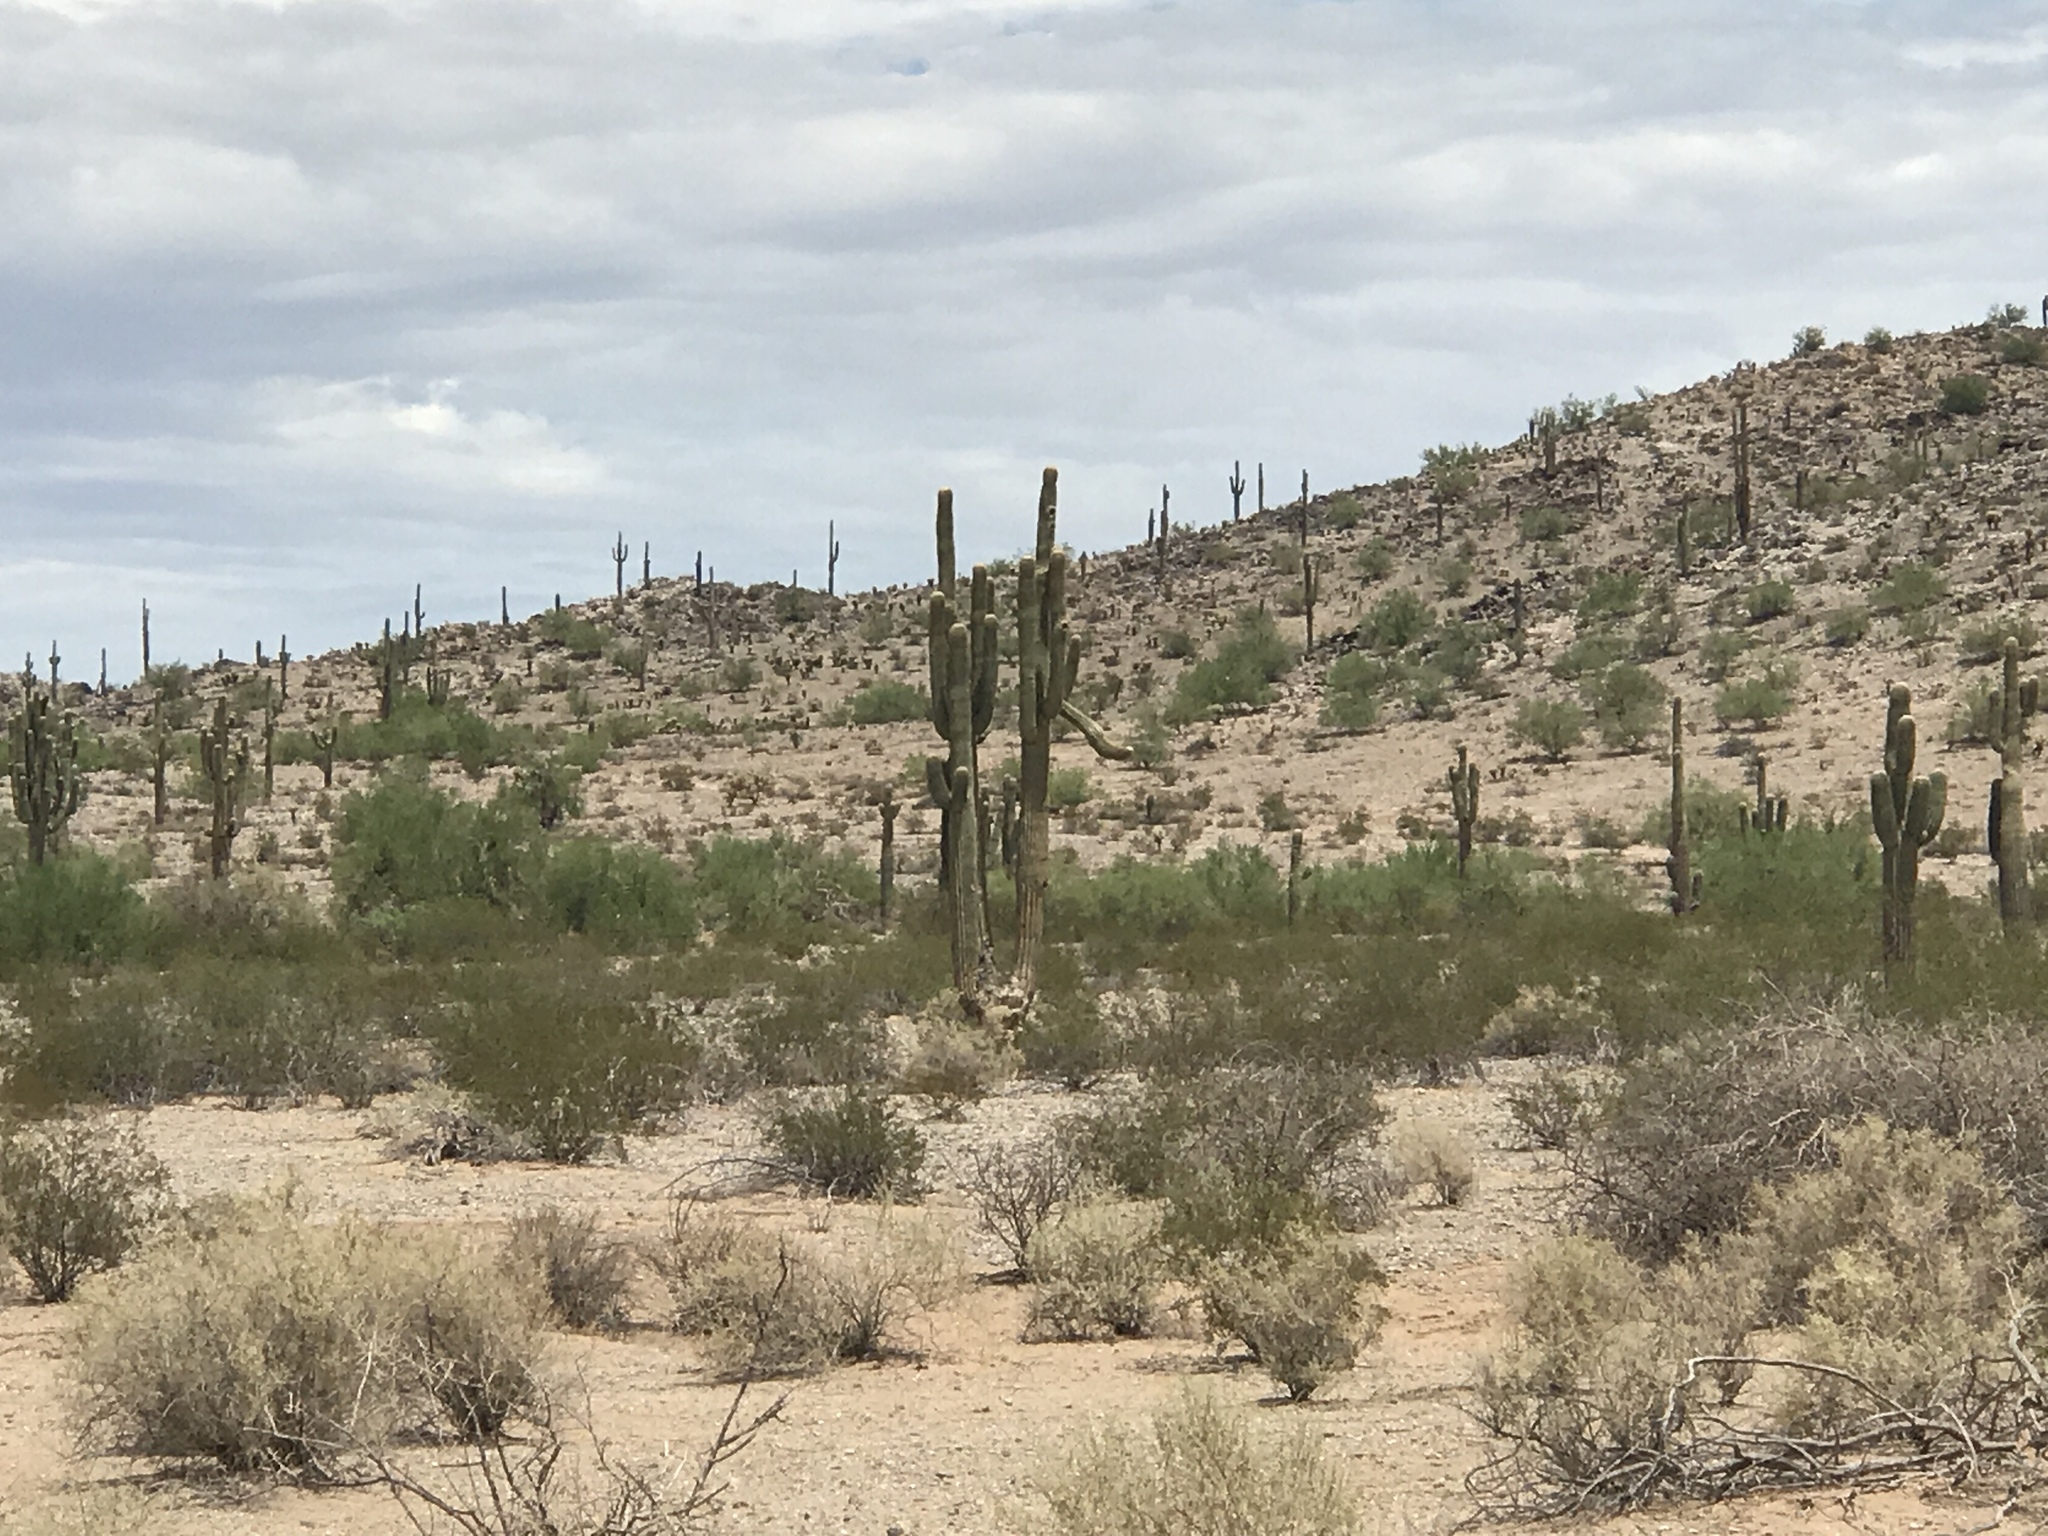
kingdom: Plantae
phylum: Tracheophyta
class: Magnoliopsida
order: Caryophyllales
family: Cactaceae
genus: Carnegiea
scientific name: Carnegiea gigantea
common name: Saguaro
